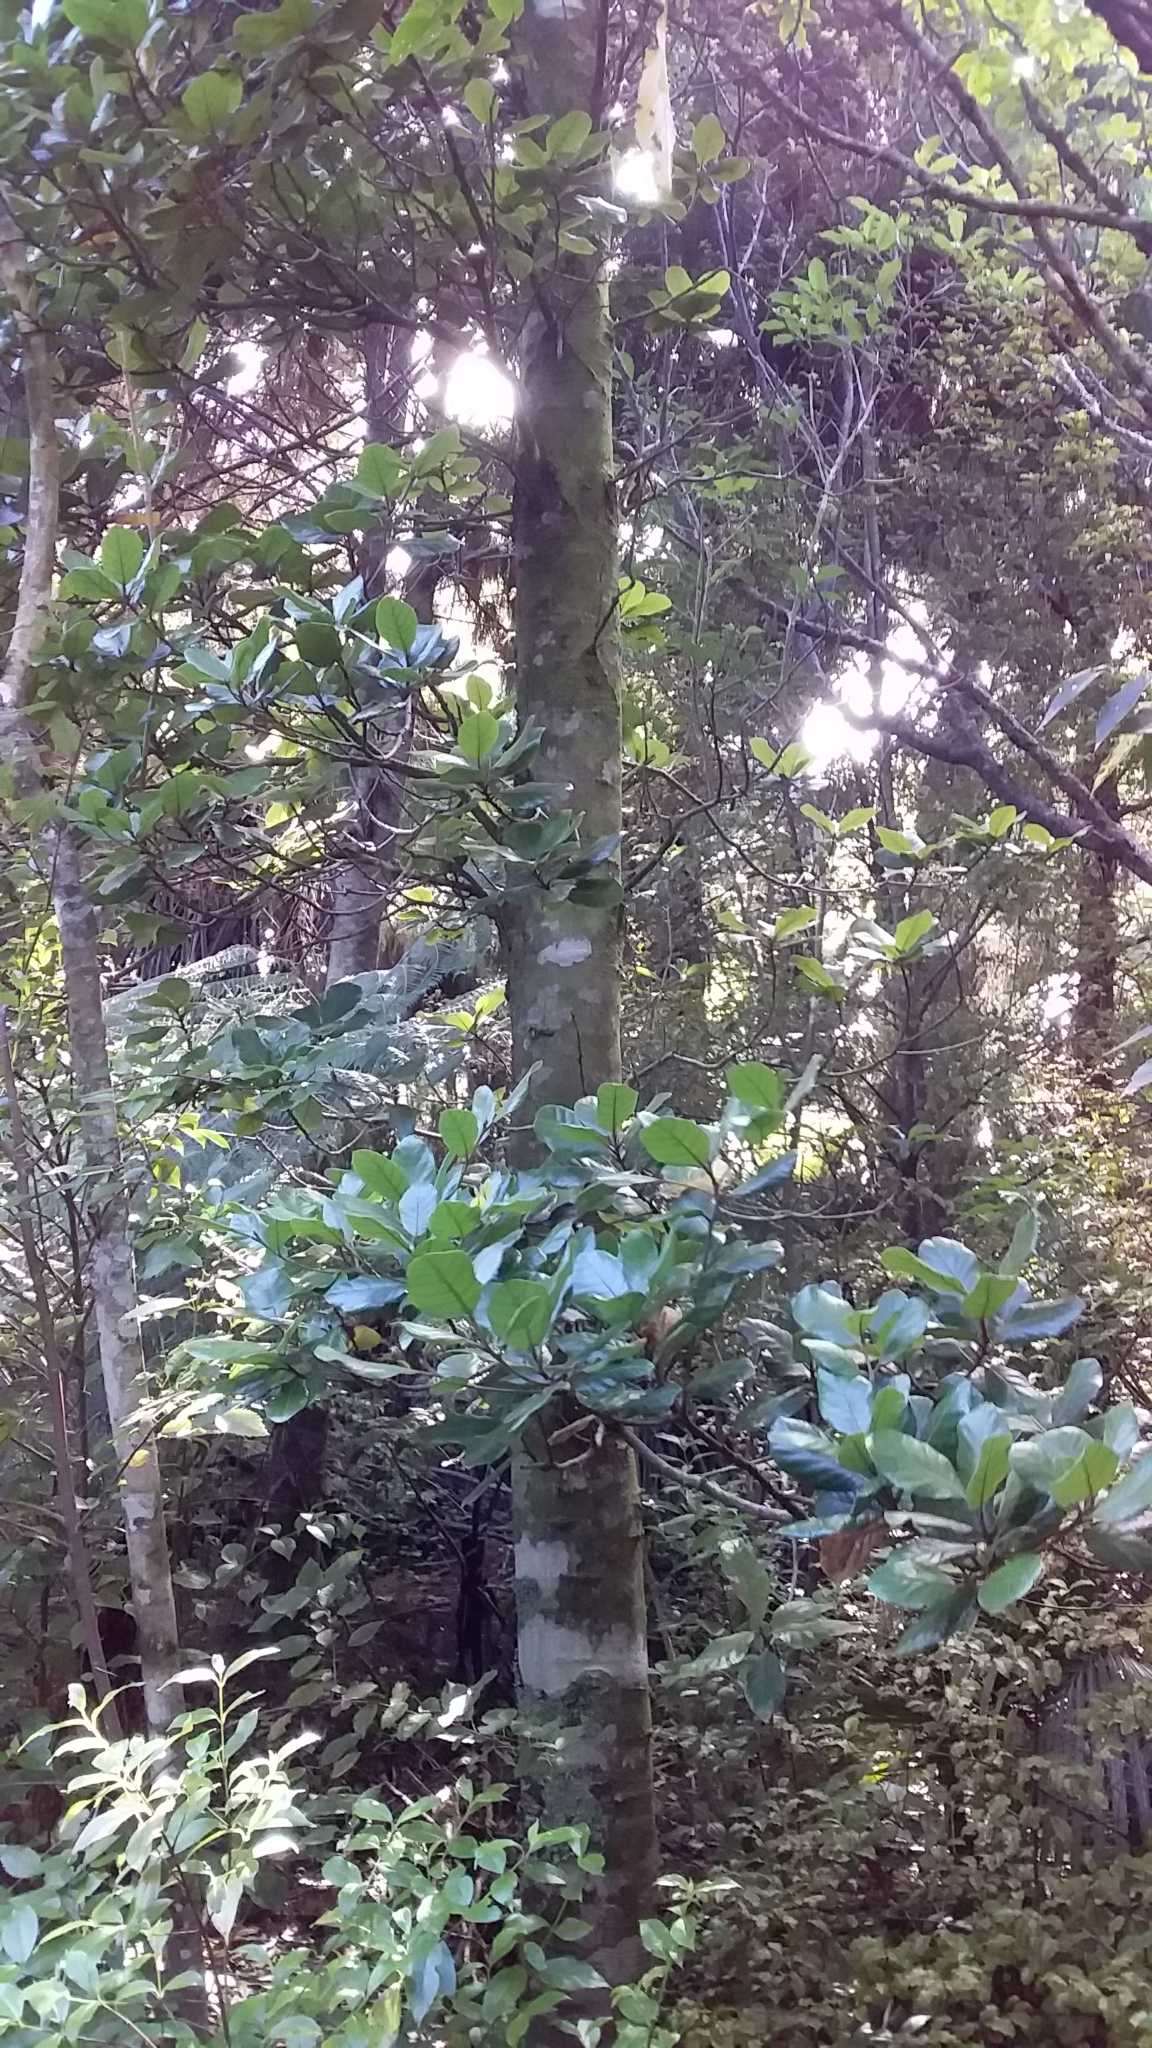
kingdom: Plantae
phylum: Tracheophyta
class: Magnoliopsida
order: Laurales
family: Lauraceae
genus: Beilschmiedia
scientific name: Beilschmiedia tarairi
